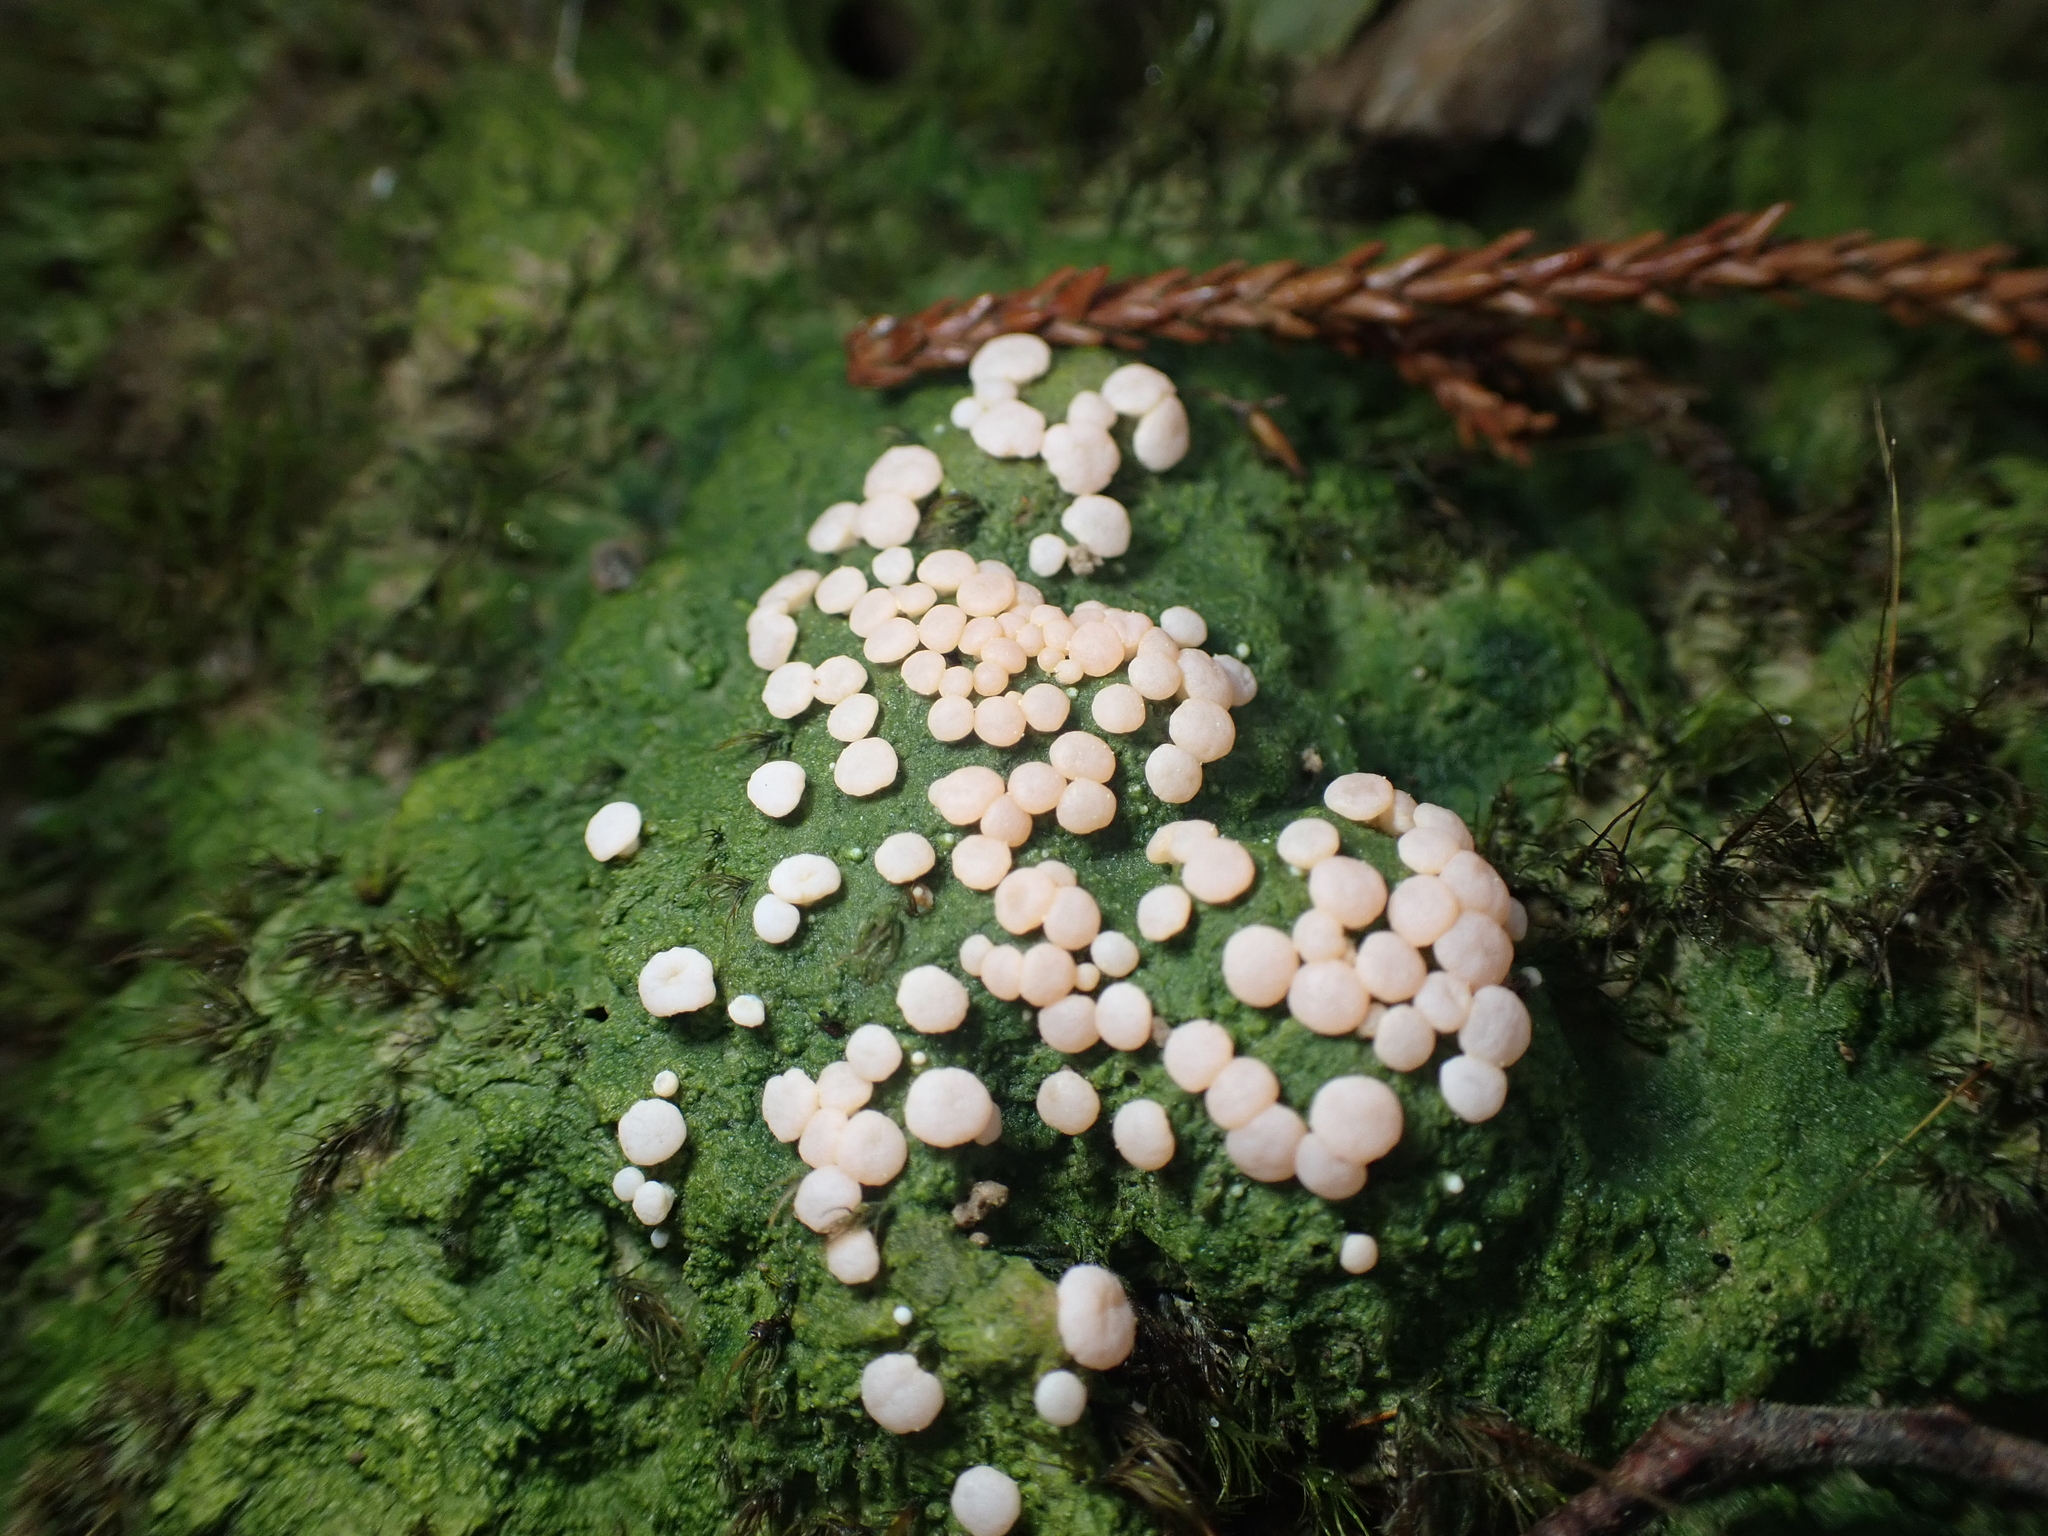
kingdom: Fungi
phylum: Ascomycota
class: Lecanoromycetes
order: Pertusariales
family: Icmadophilaceae
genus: Dibaeis
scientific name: Dibaeis absoluta
